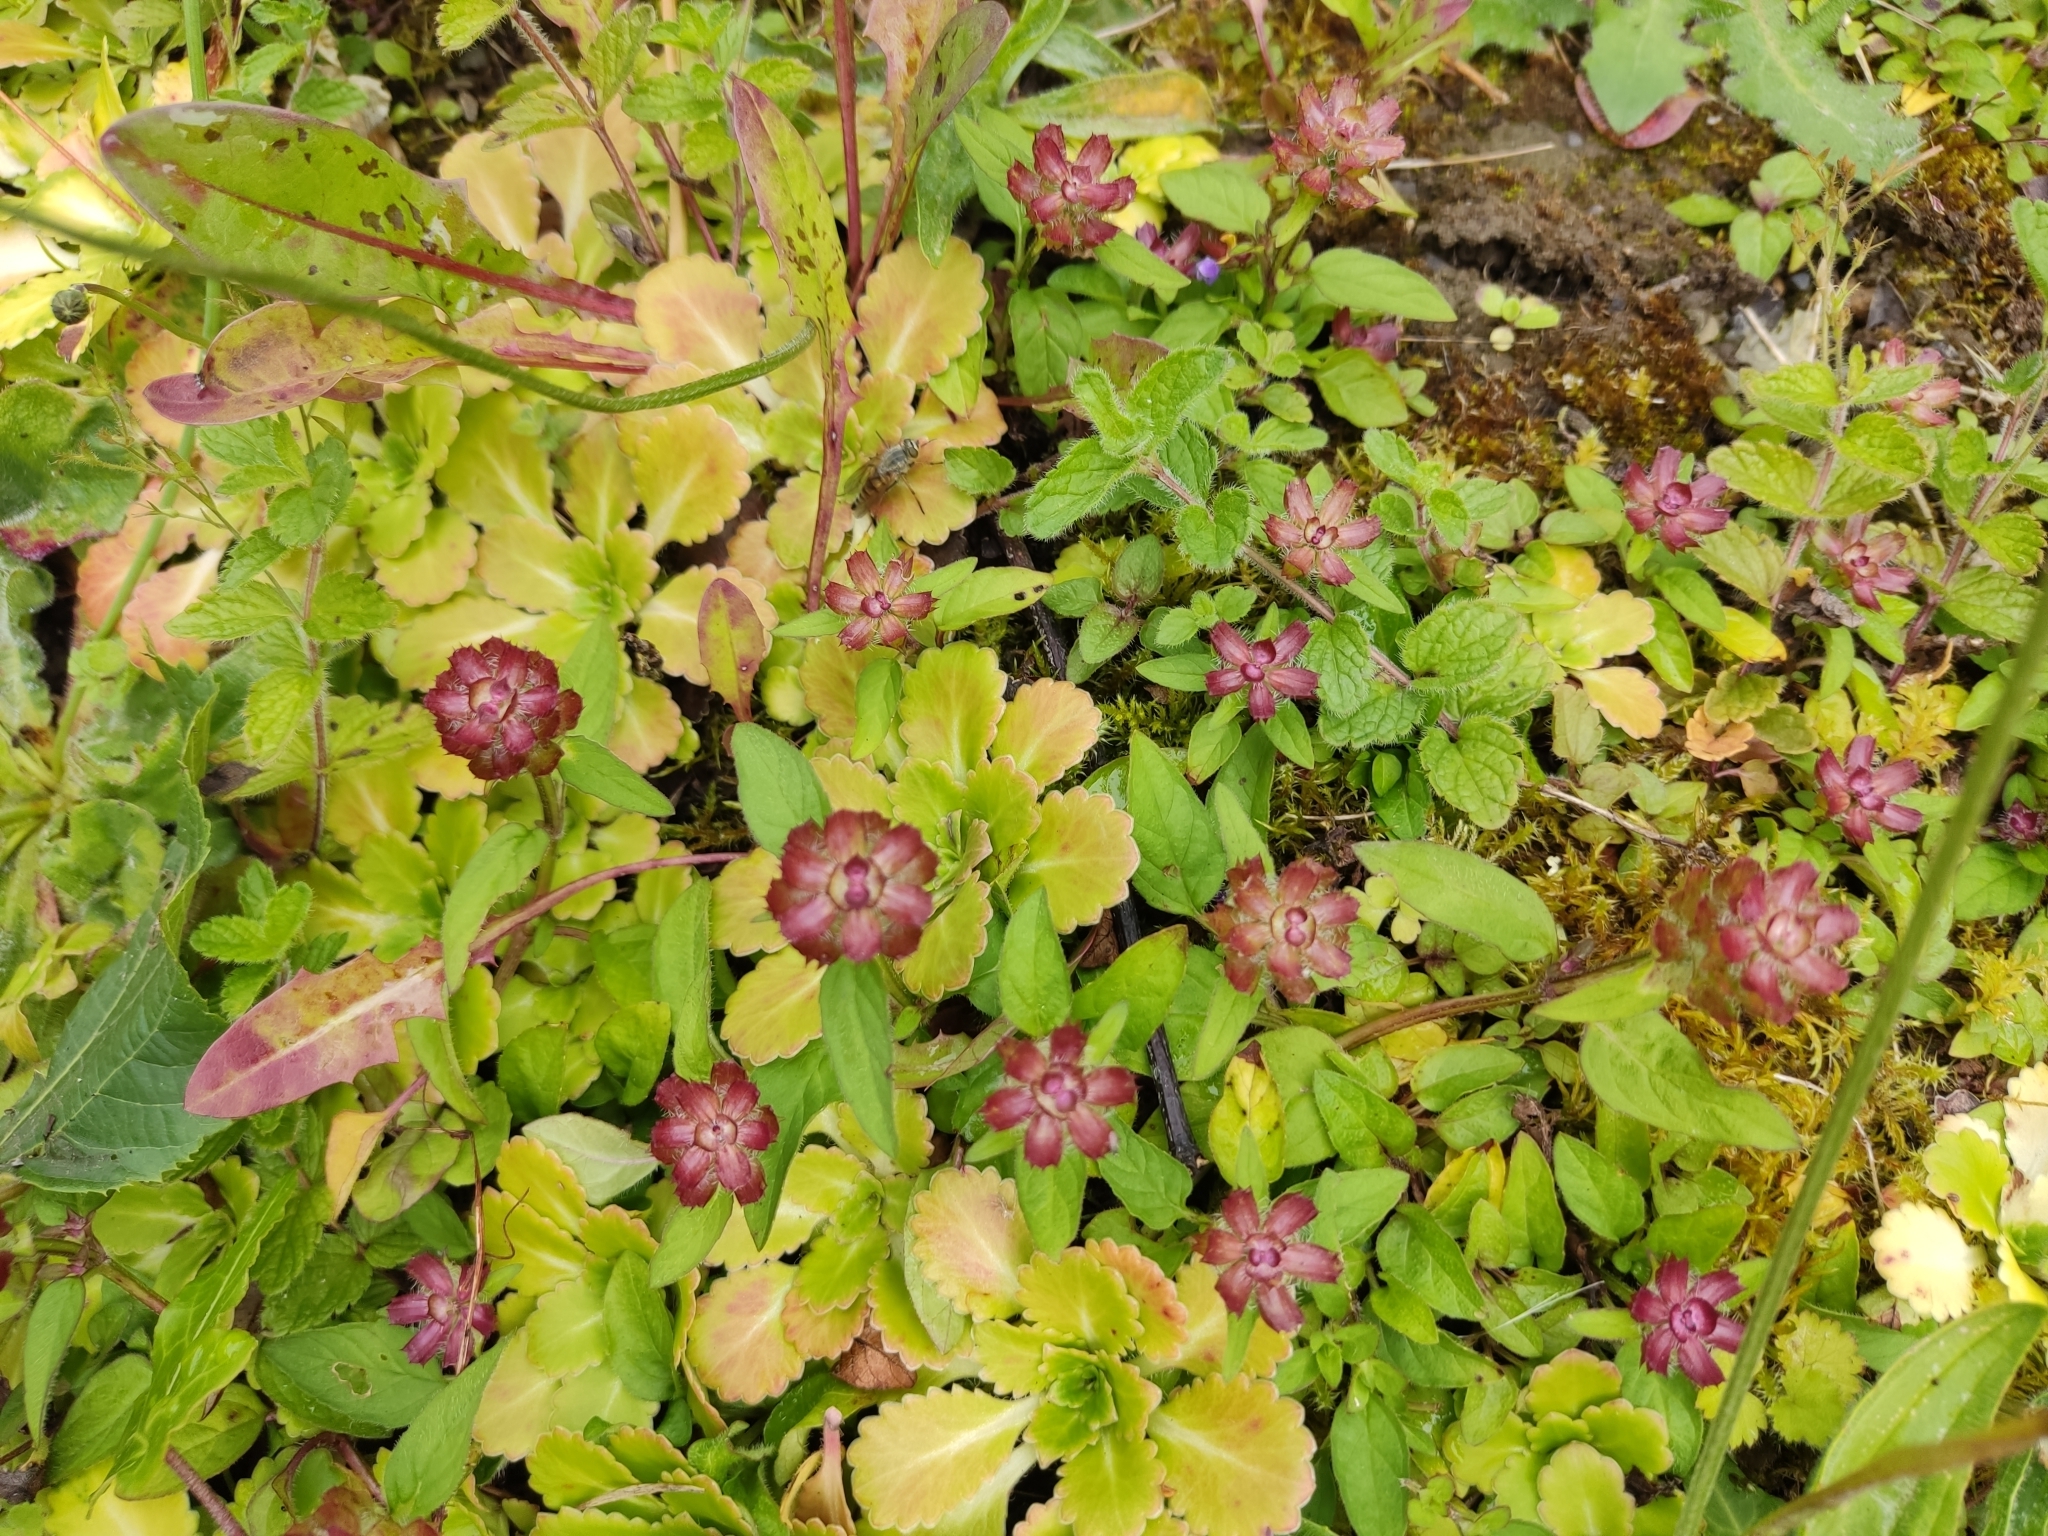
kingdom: Plantae
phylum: Tracheophyta
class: Magnoliopsida
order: Lamiales
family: Lamiaceae
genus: Prunella
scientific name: Prunella vulgaris
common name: Heal-all
